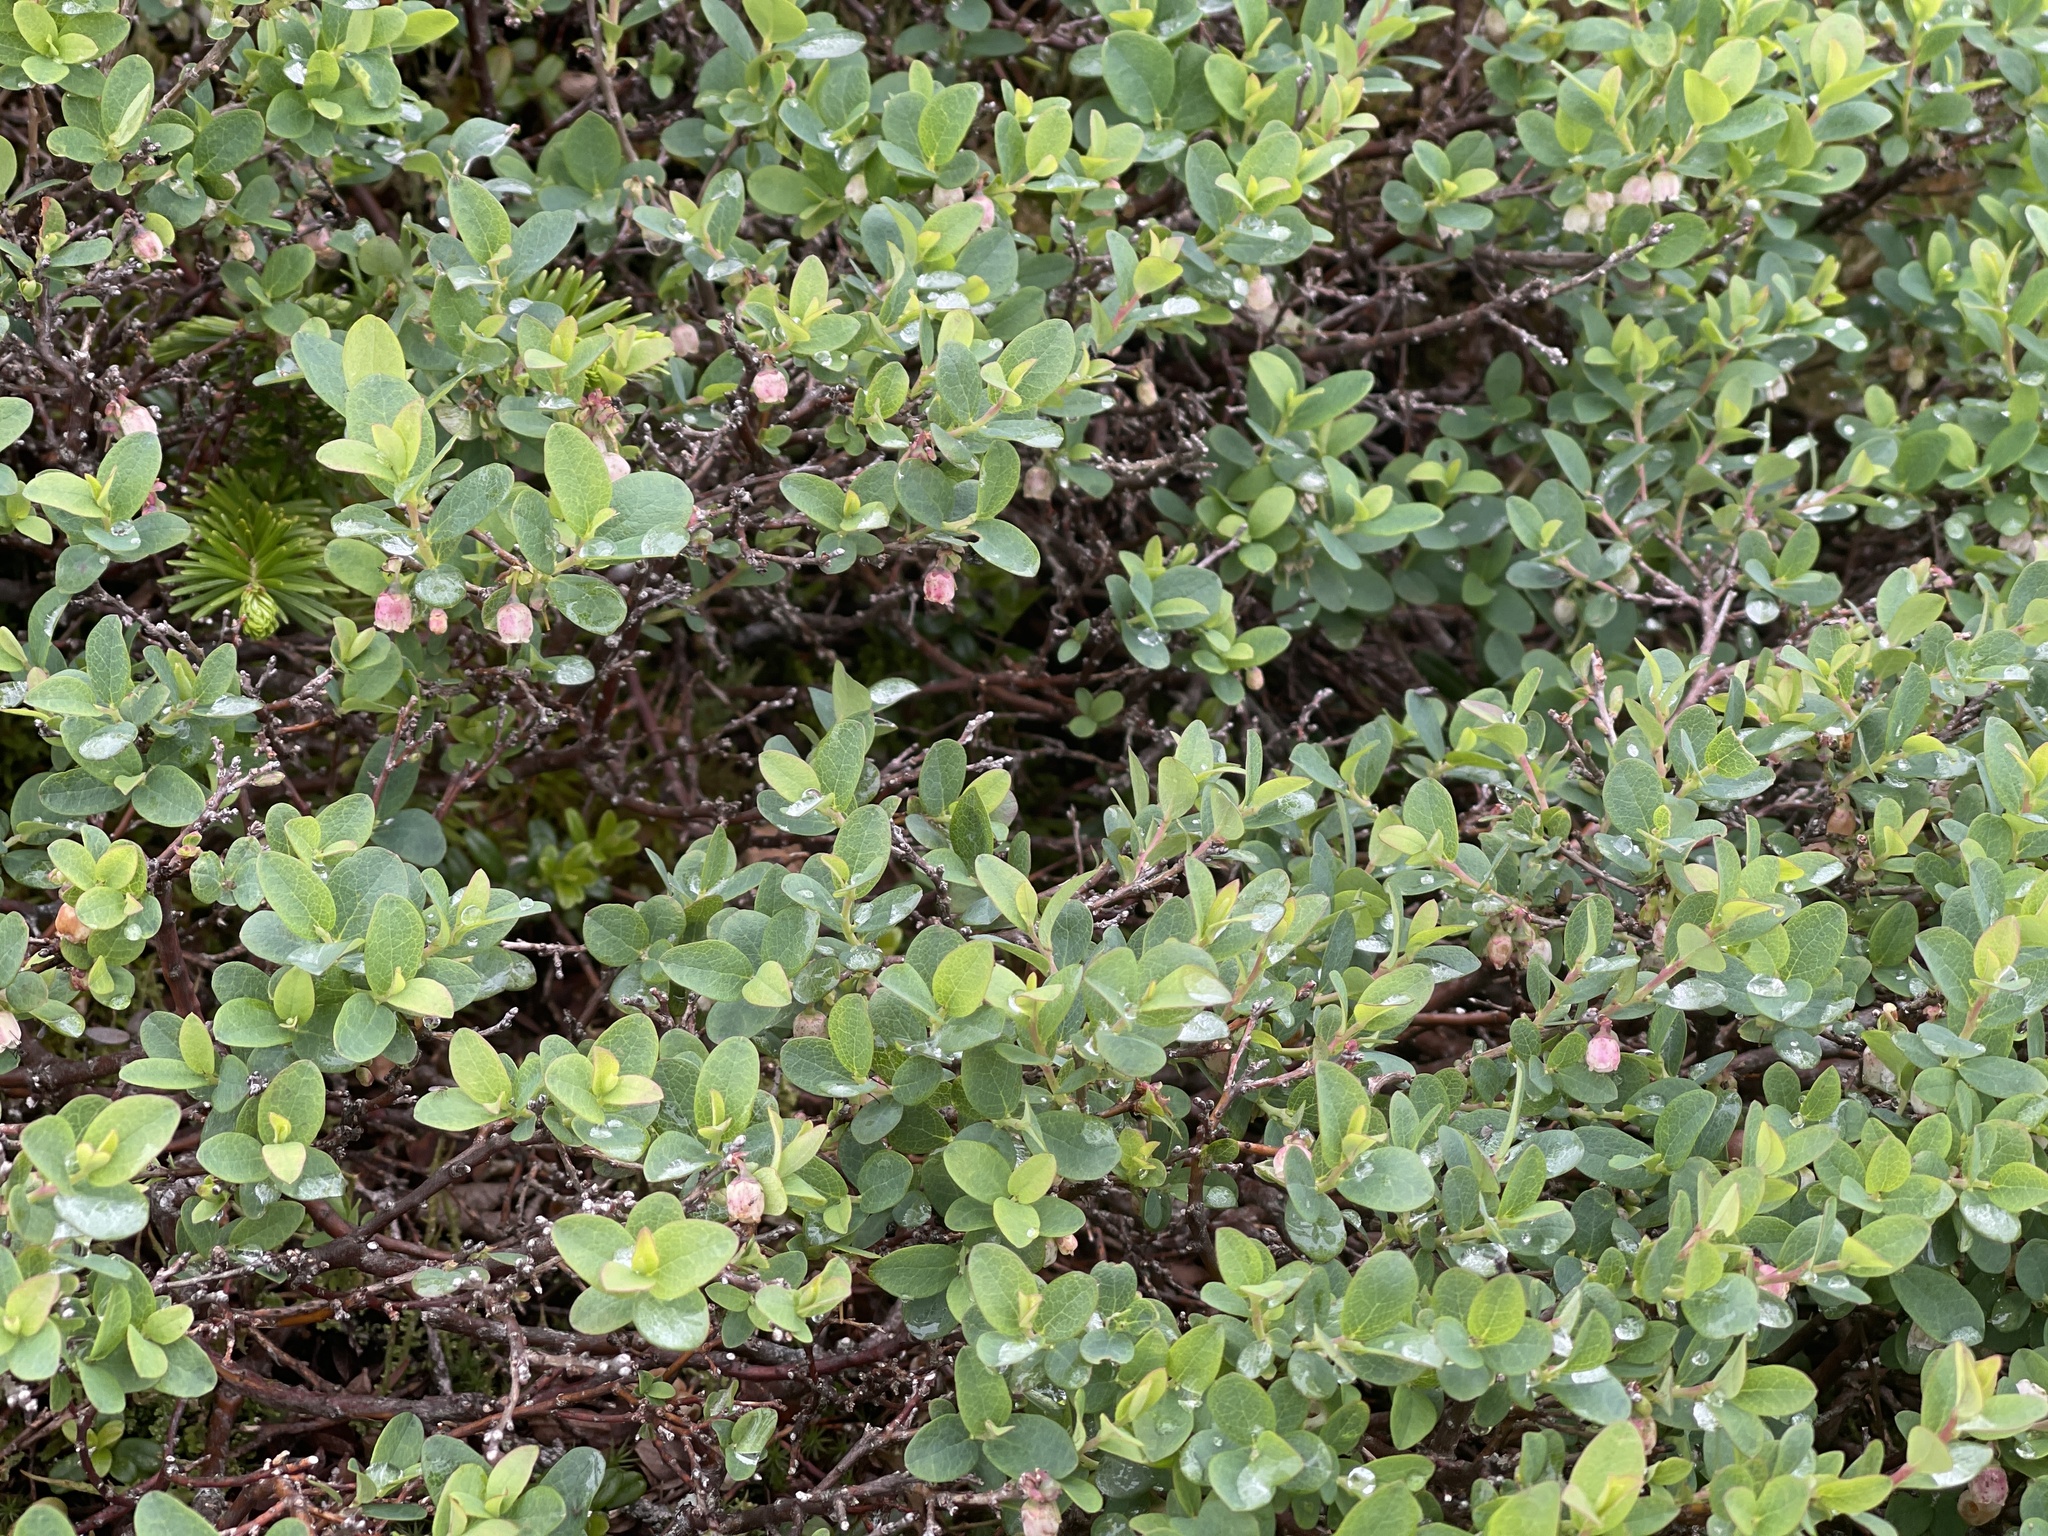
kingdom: Plantae
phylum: Tracheophyta
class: Magnoliopsida
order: Ericales
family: Ericaceae
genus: Vaccinium
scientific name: Vaccinium uliginosum
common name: Bog bilberry
